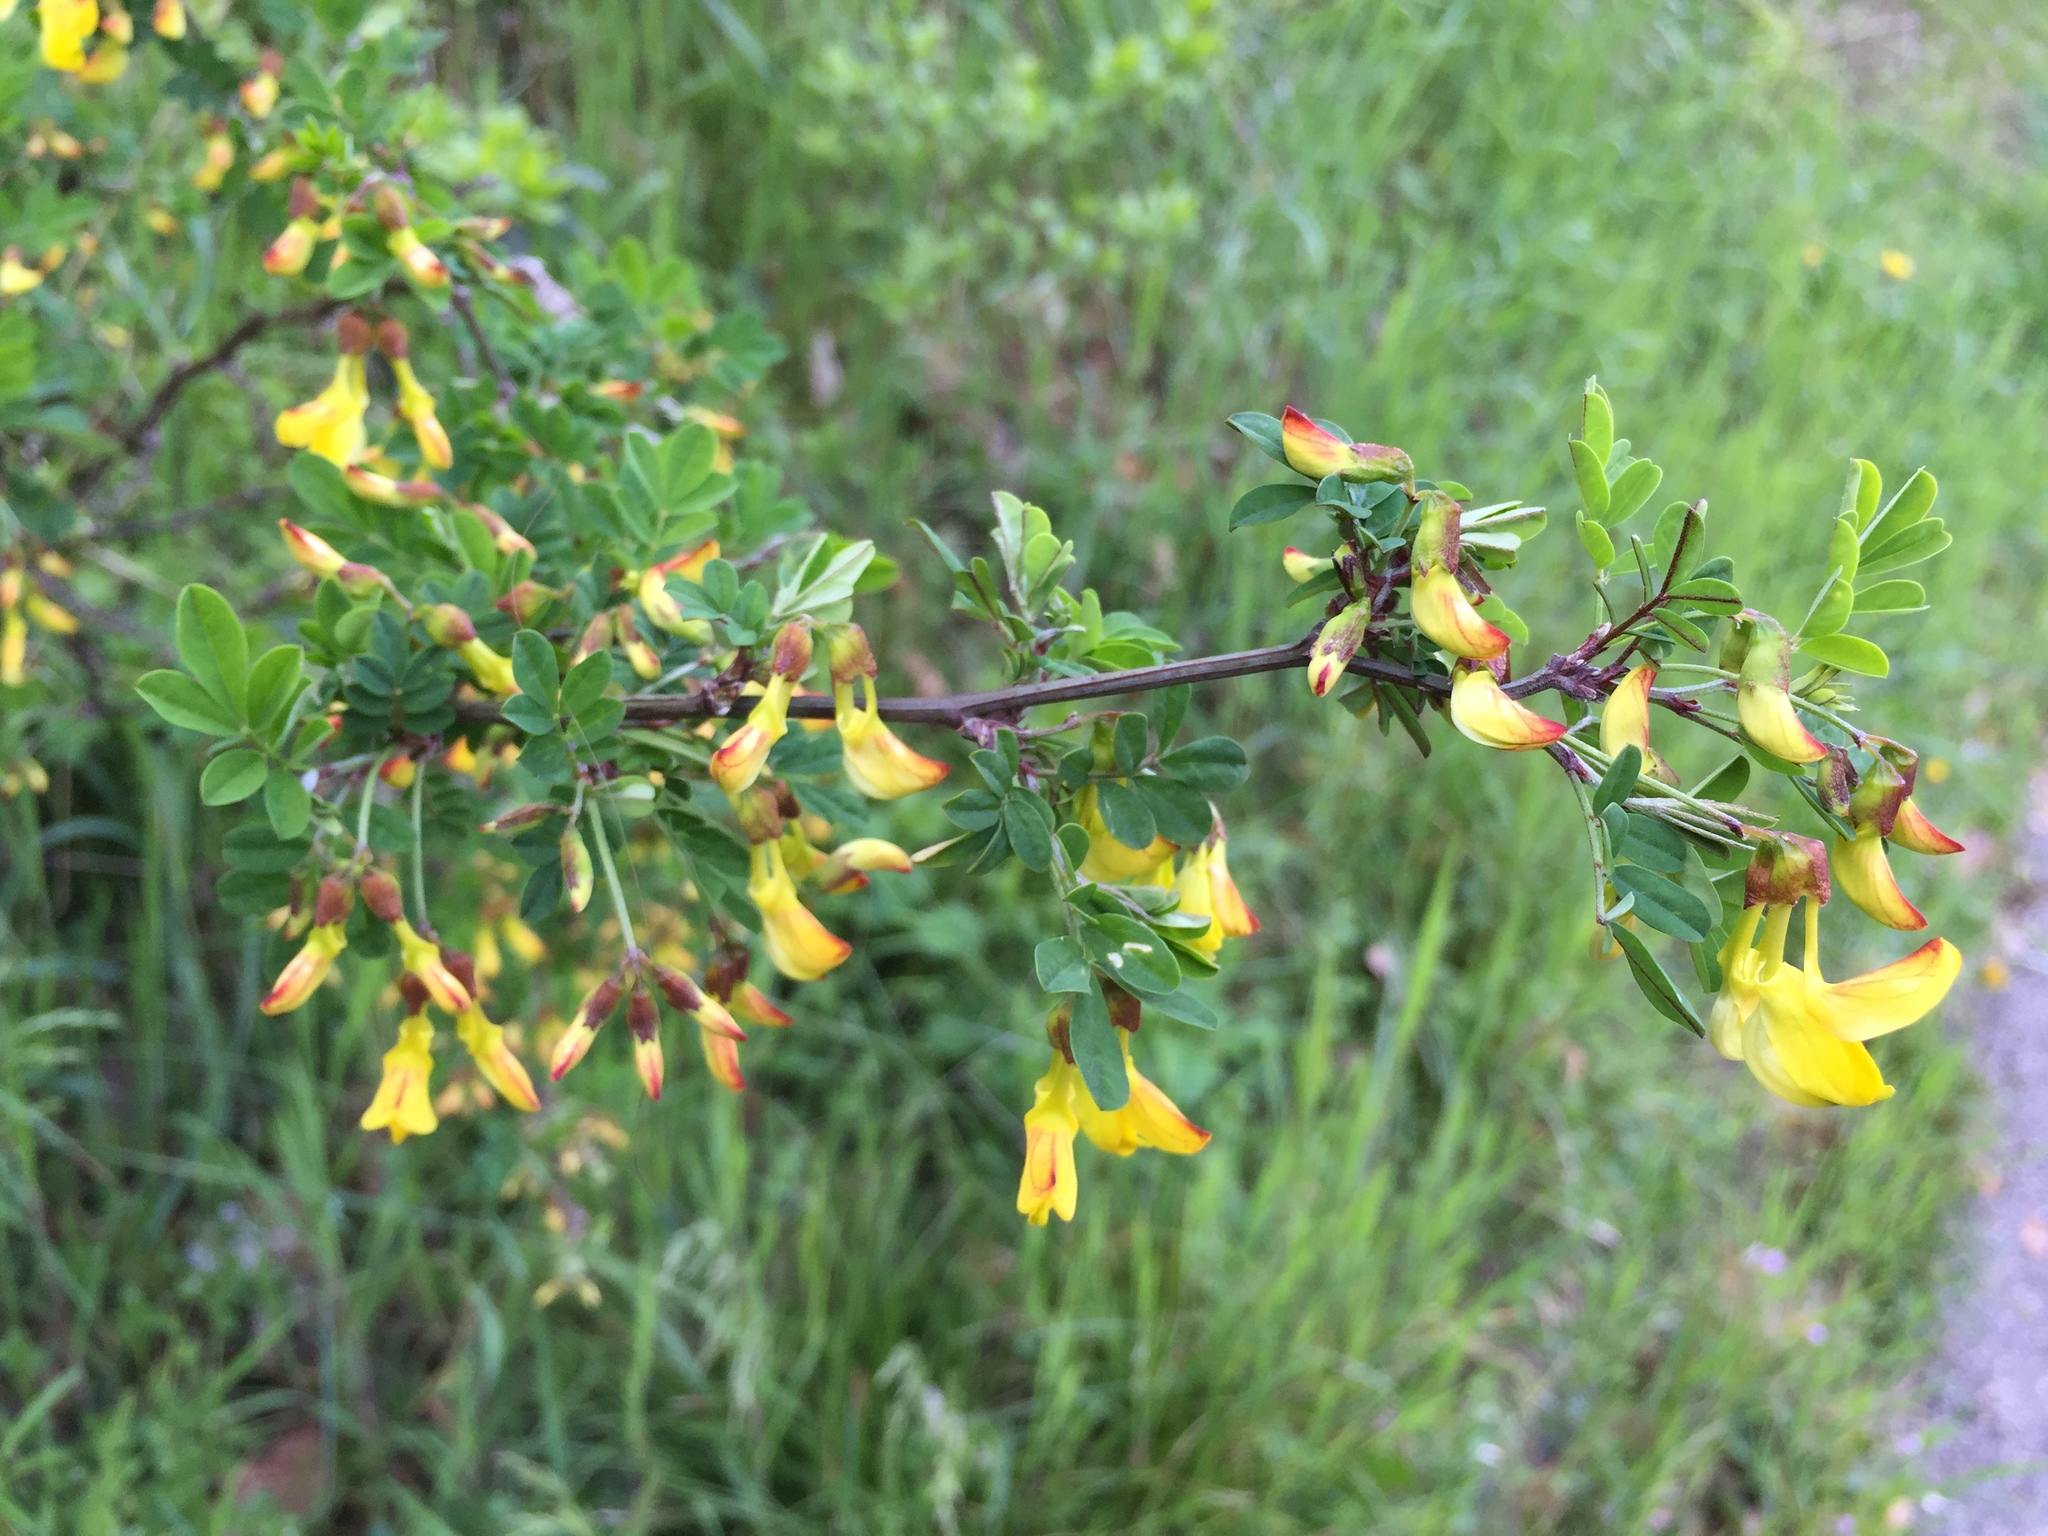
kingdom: Plantae
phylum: Tracheophyta
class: Magnoliopsida
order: Fabales
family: Fabaceae
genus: Hippocrepis
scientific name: Hippocrepis emerus
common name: Scorpion senna
